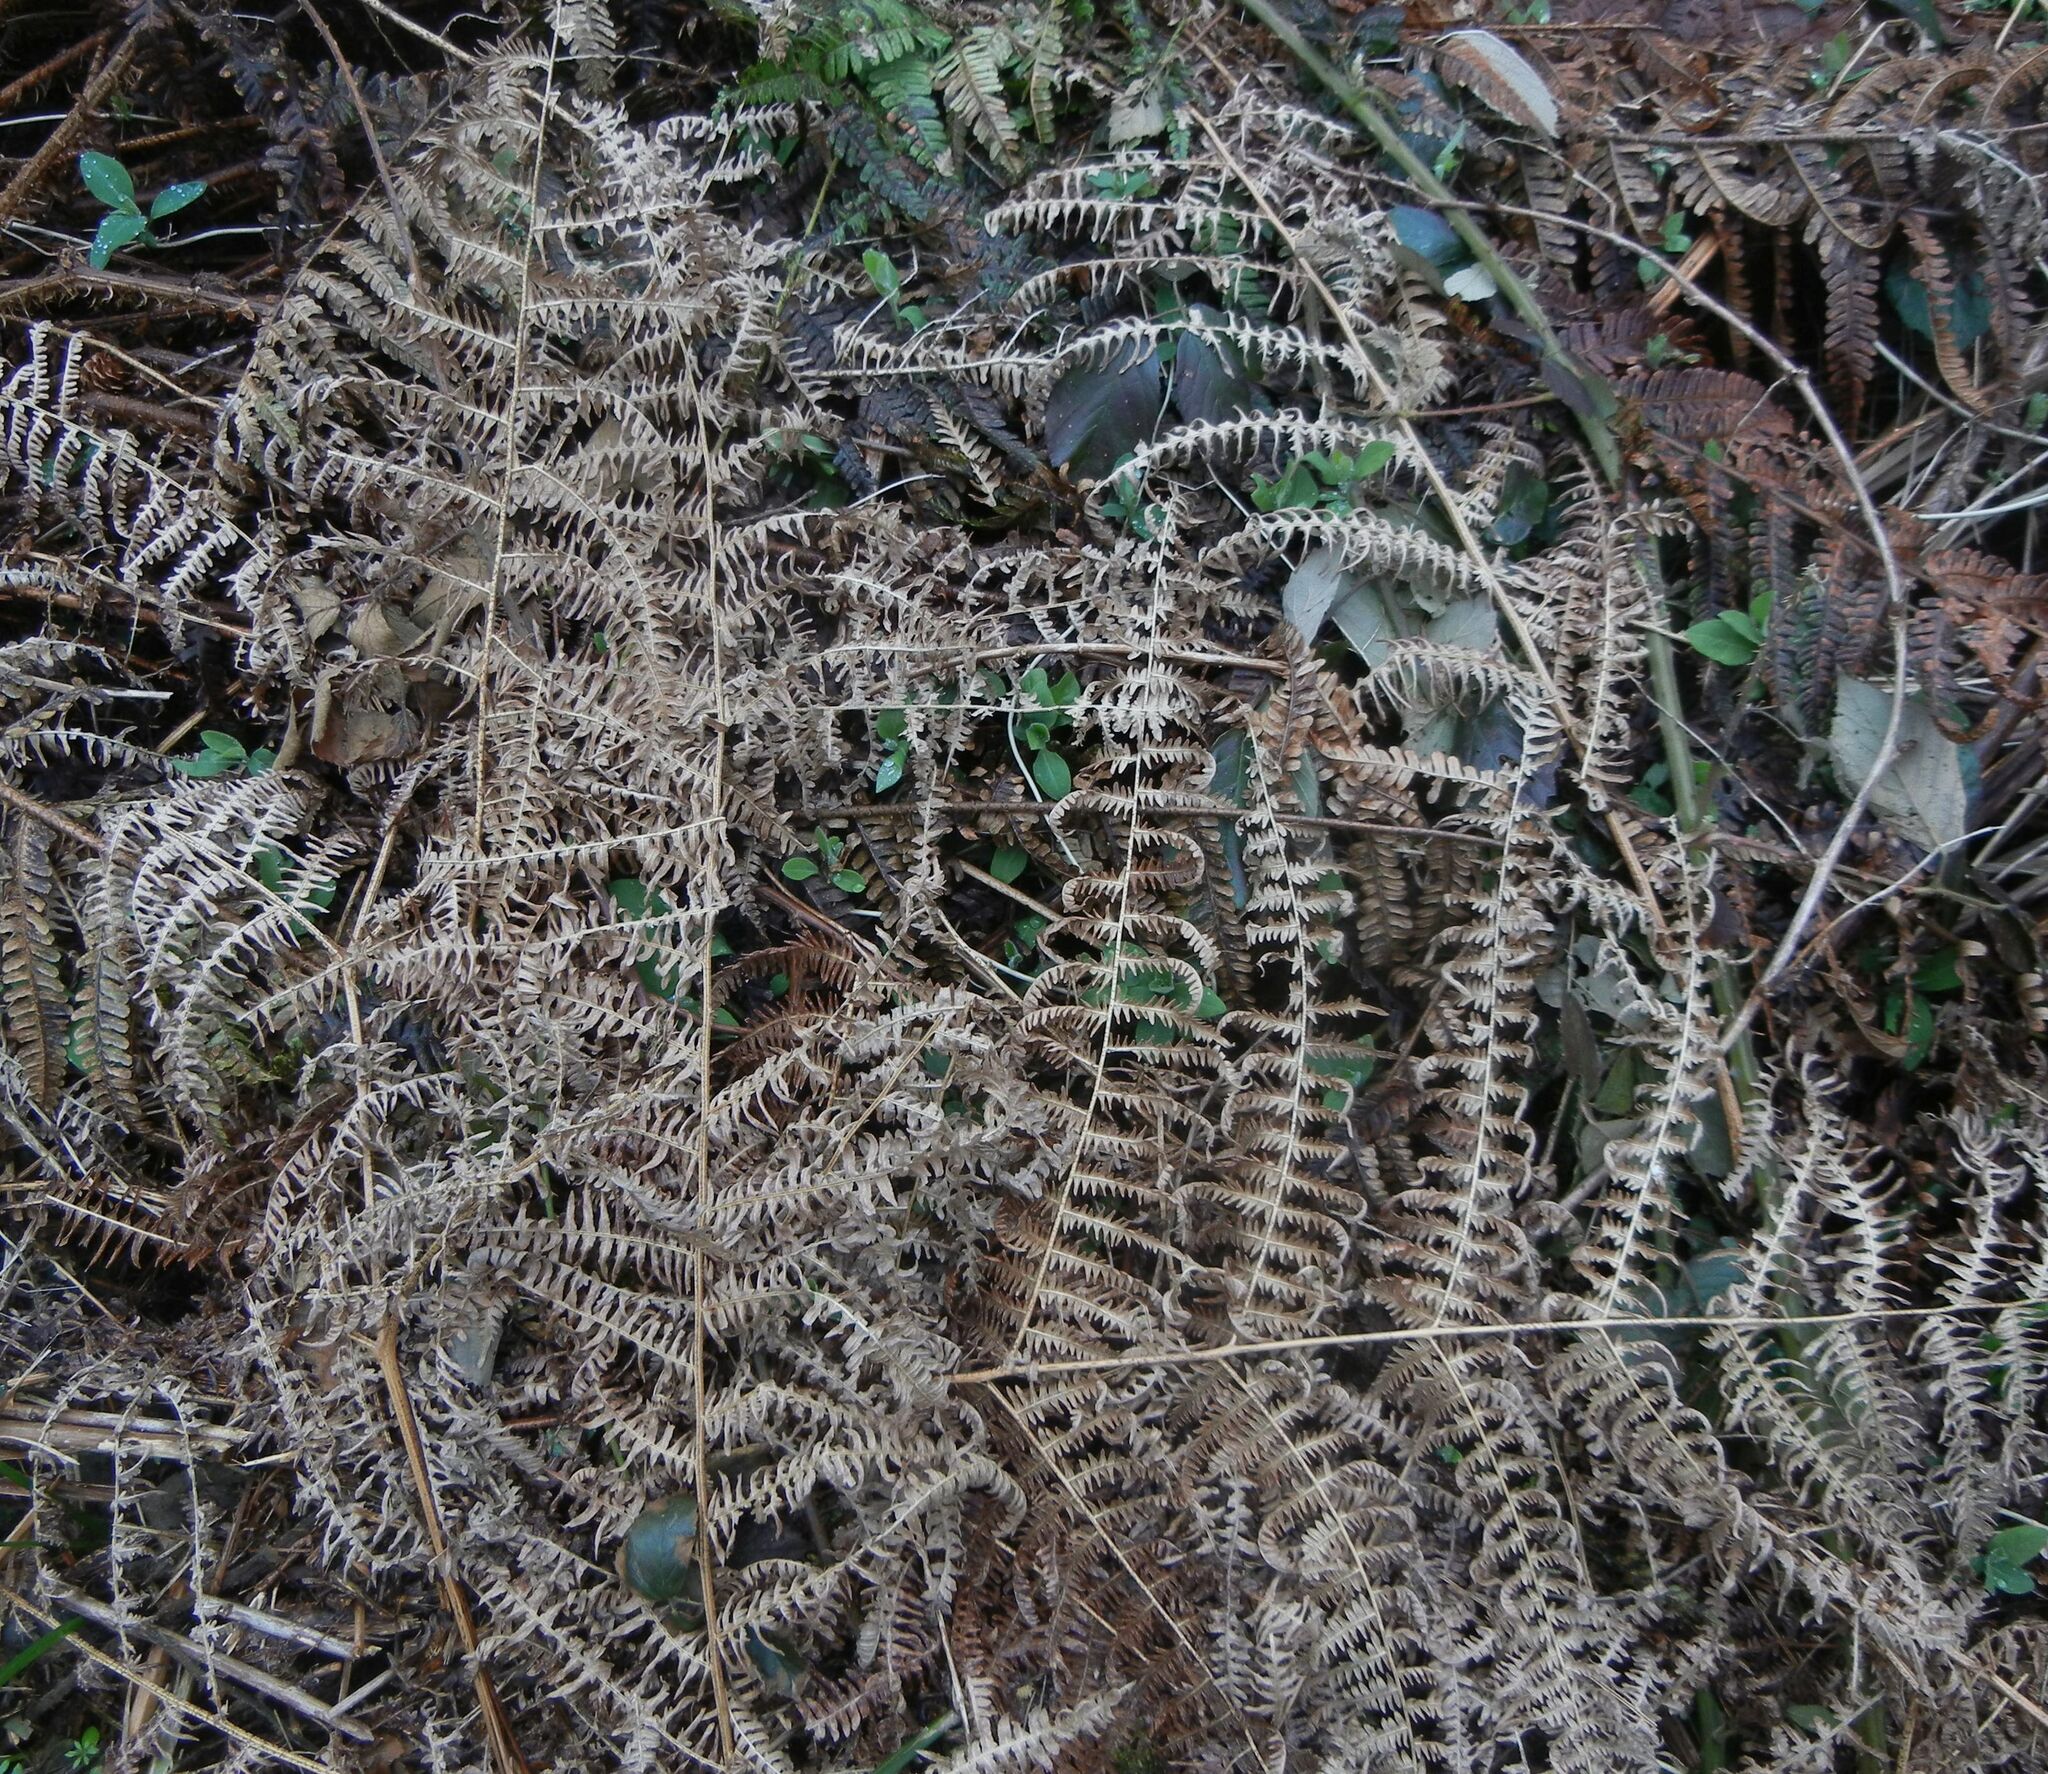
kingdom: Plantae
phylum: Tracheophyta
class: Polypodiopsida
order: Polypodiales
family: Dennstaedtiaceae
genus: Pteridium
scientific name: Pteridium aquilinum
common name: Bracken
